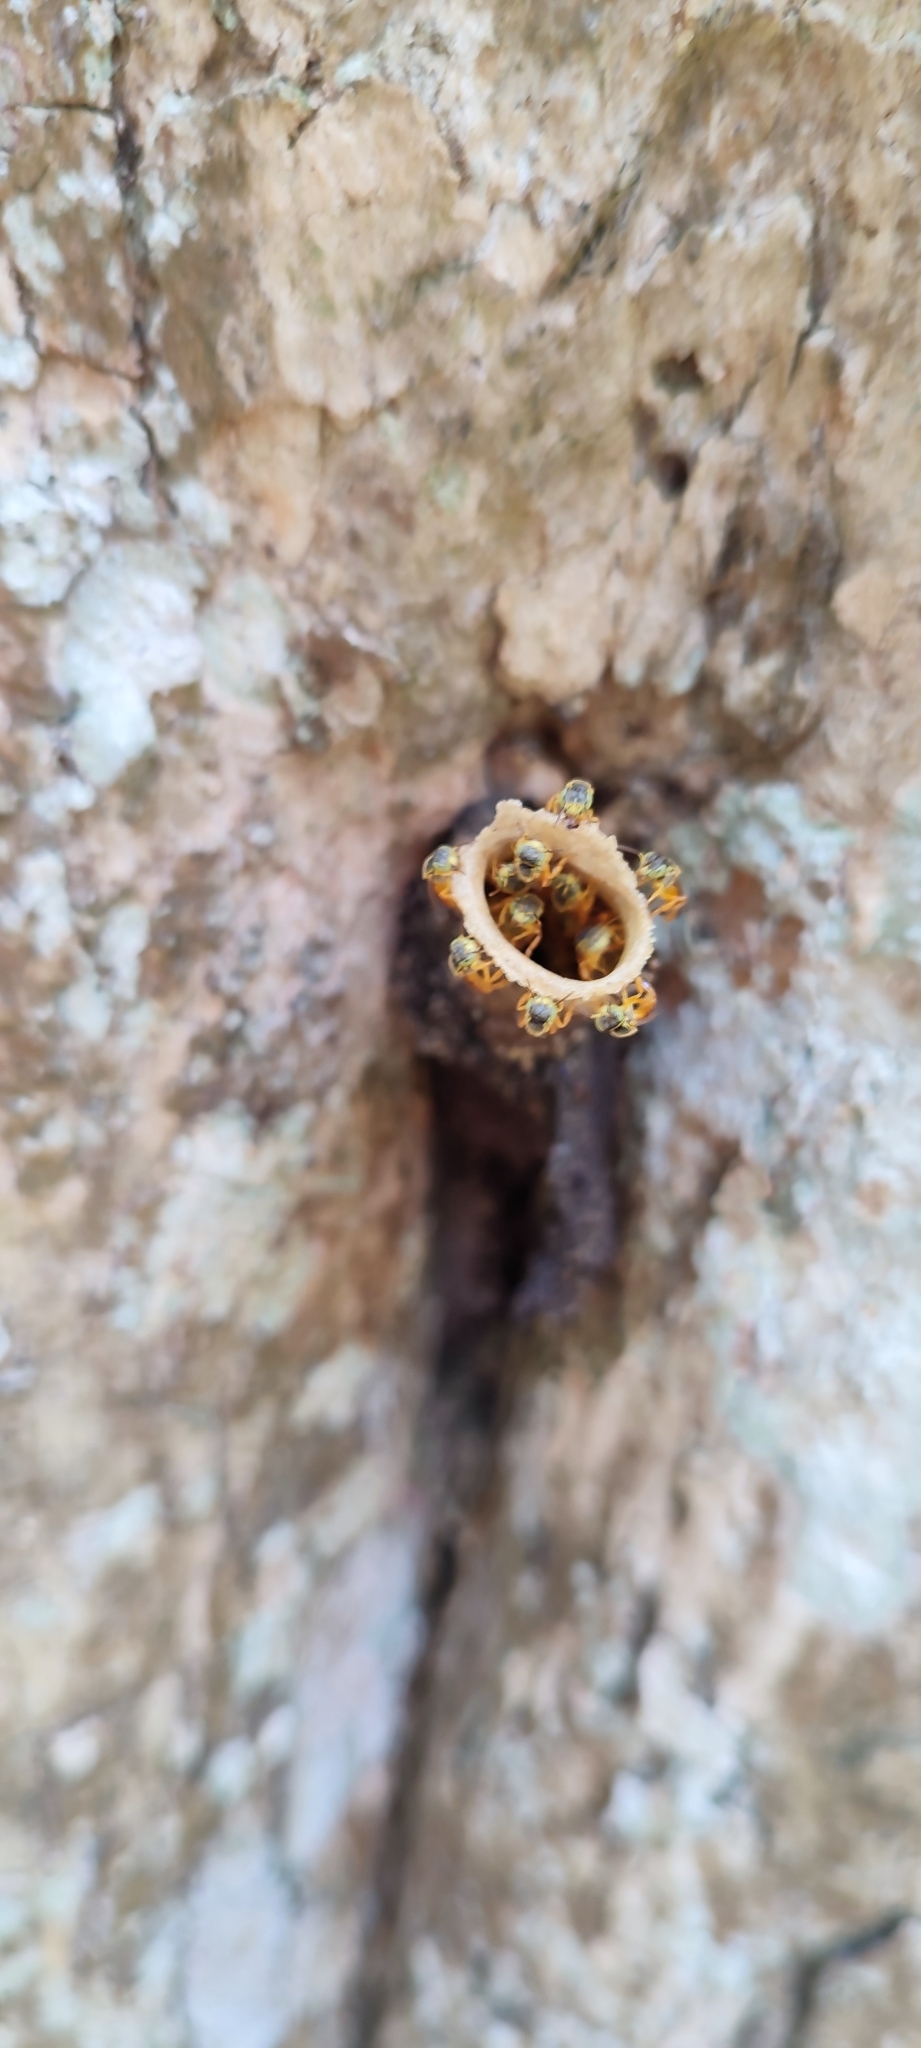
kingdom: Animalia
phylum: Arthropoda
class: Insecta
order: Hymenoptera
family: Apidae
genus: Tetragonisca
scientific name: Tetragonisca angustula
